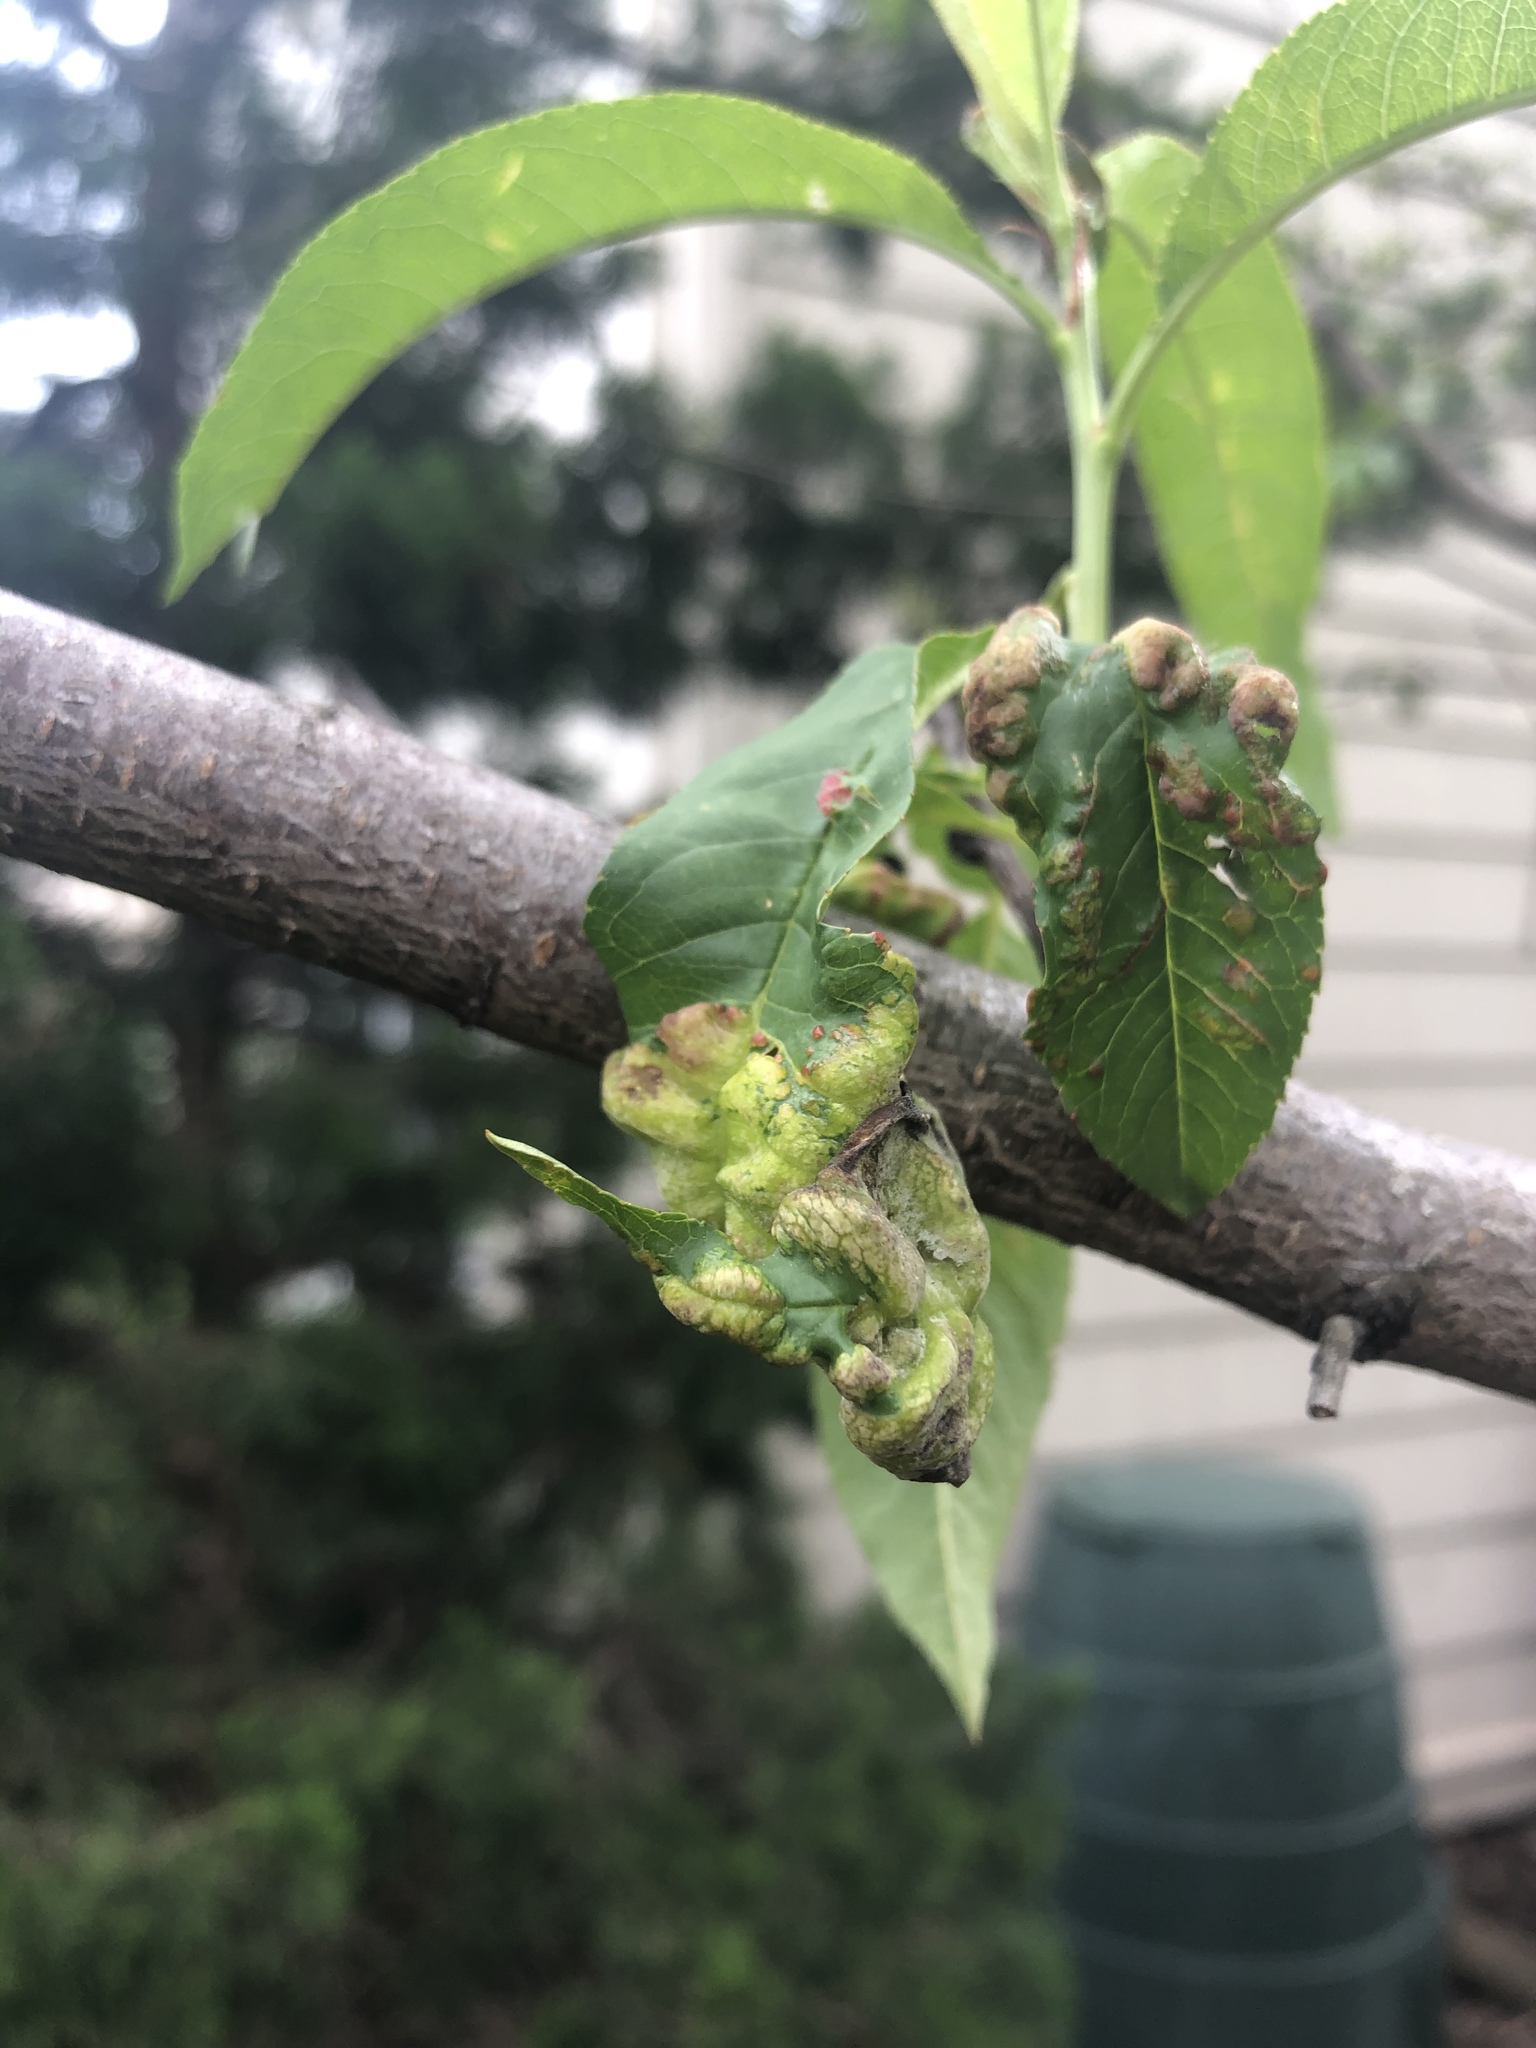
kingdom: Fungi
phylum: Ascomycota
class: Taphrinomycetes
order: Taphrinales
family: Taphrinaceae
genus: Taphrina
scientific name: Taphrina deformans
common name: Peach leaf curl
